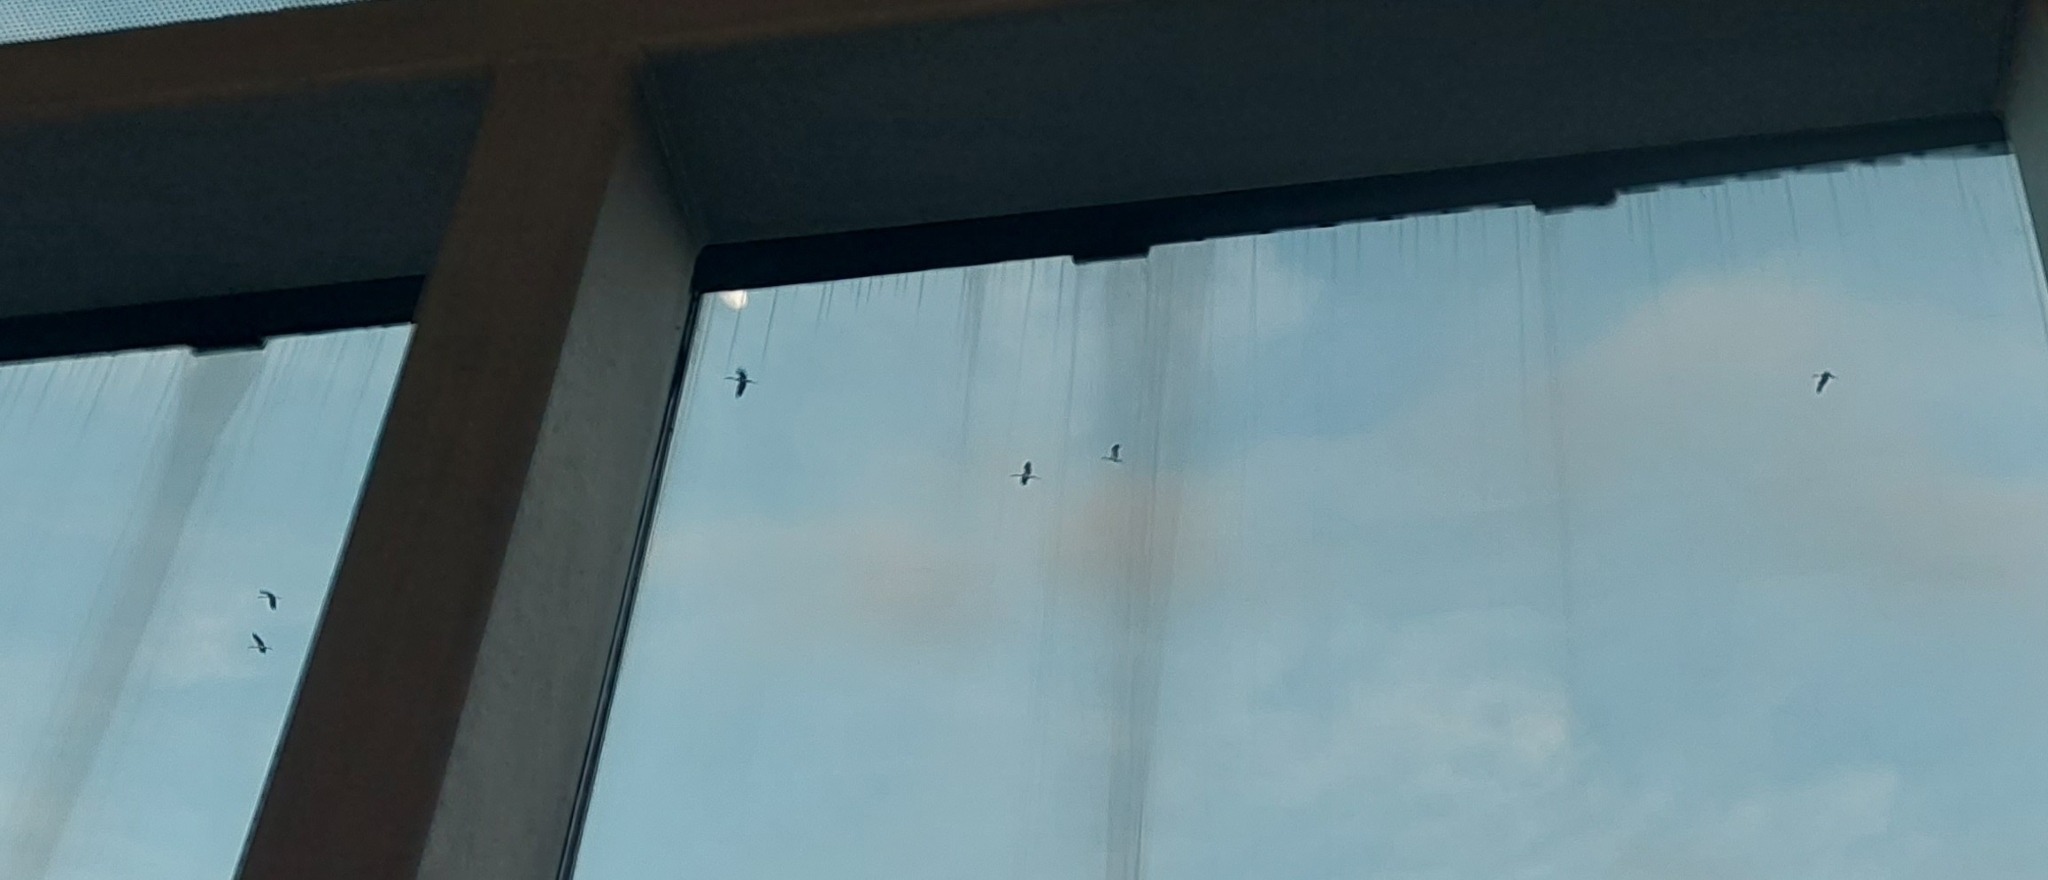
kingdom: Animalia
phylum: Chordata
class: Aves
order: Ciconiiformes
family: Ciconiidae
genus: Anastomus
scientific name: Anastomus oscitans
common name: Asian openbill
